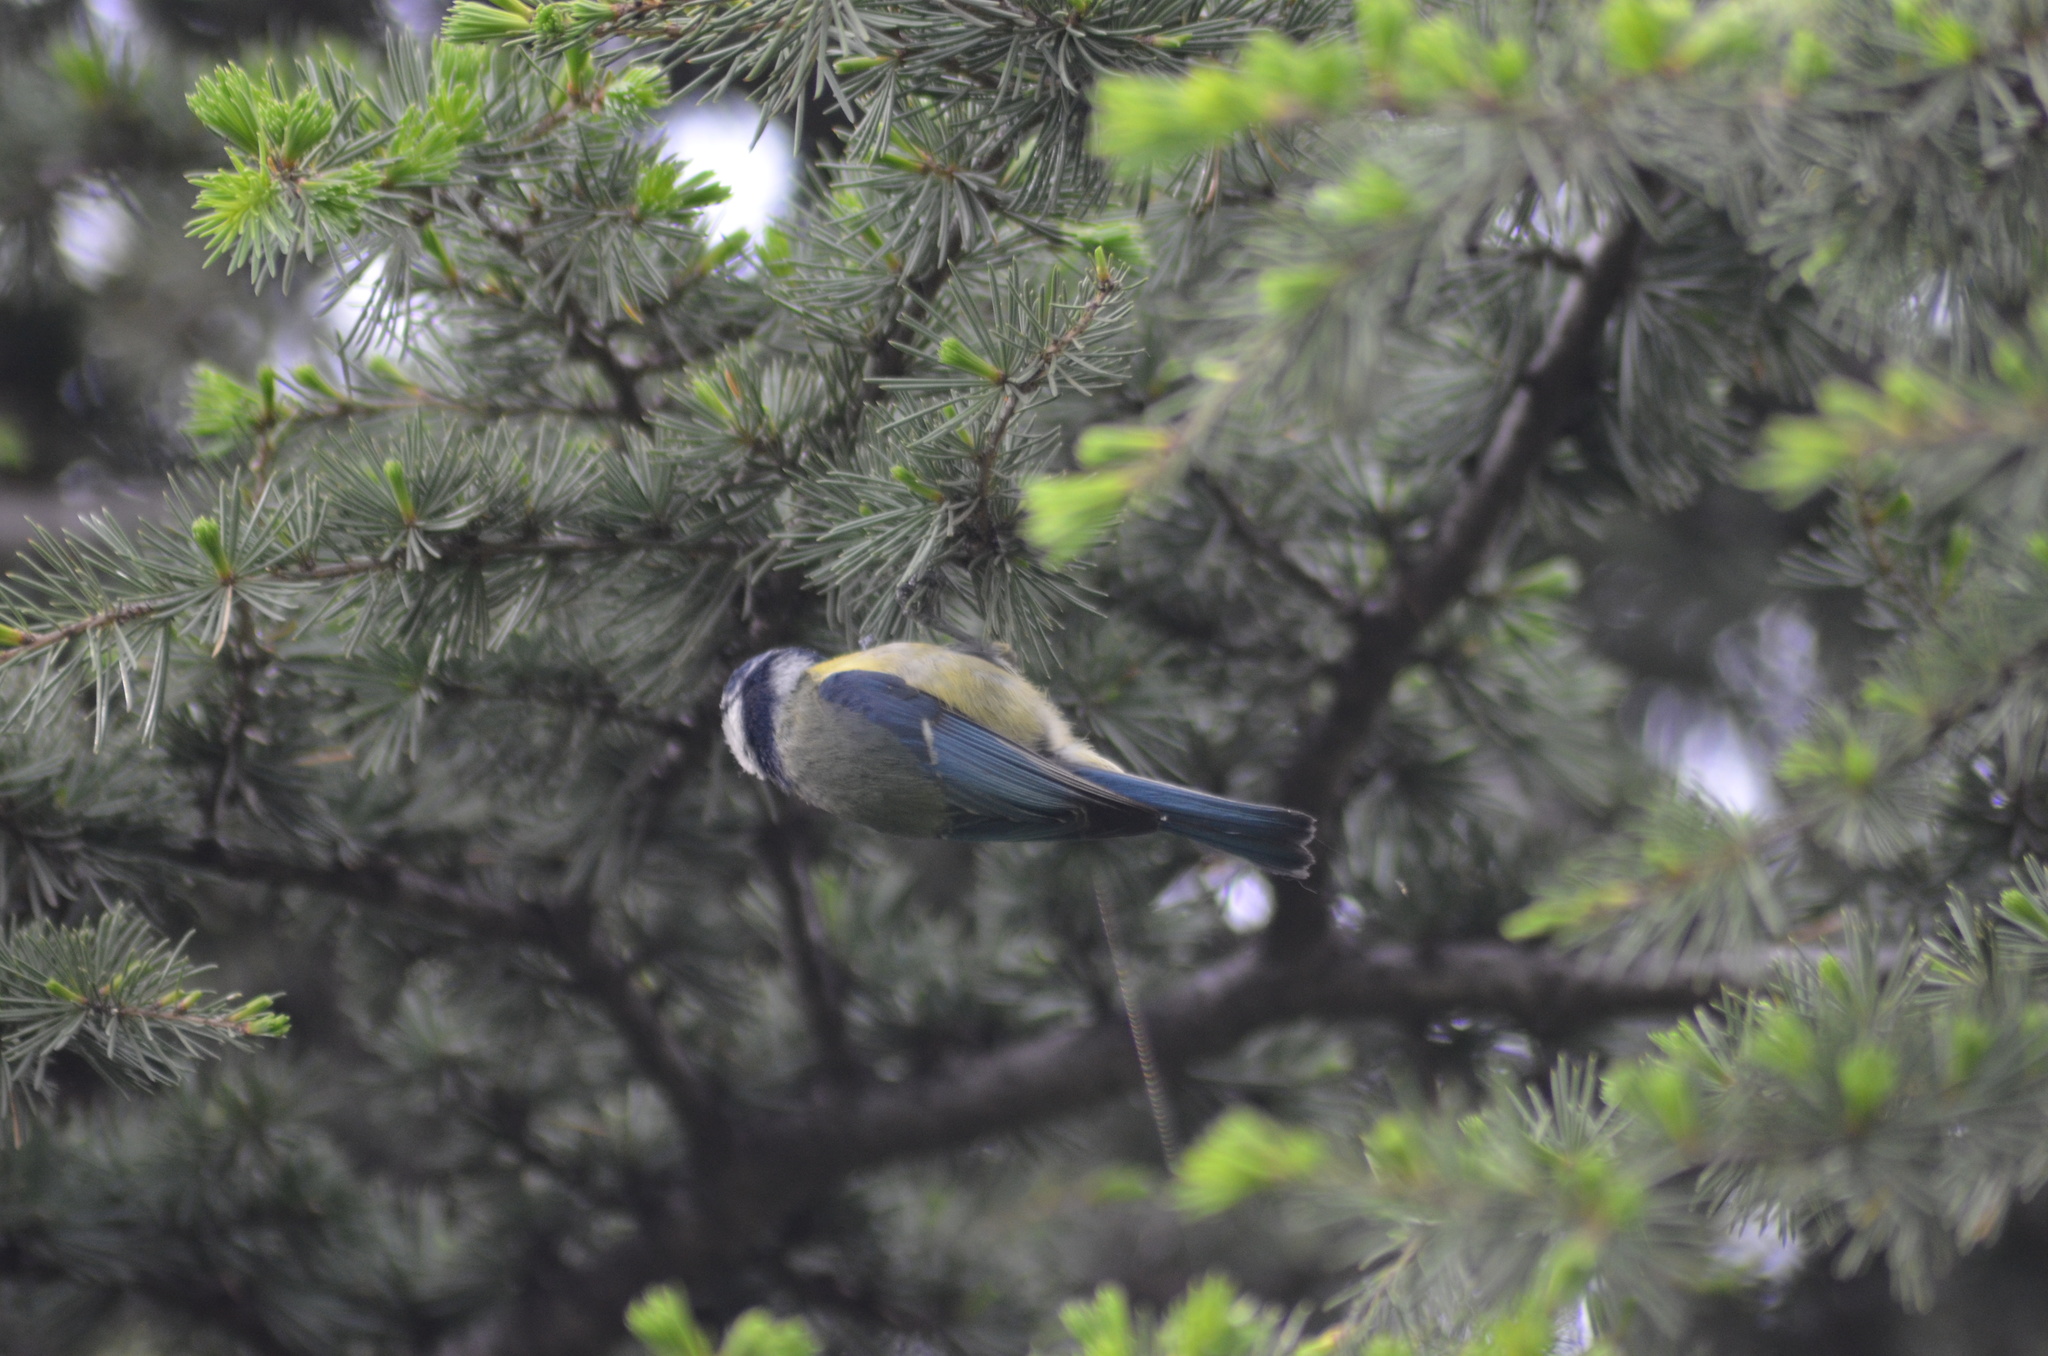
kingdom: Animalia
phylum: Chordata
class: Aves
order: Passeriformes
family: Paridae
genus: Cyanistes
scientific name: Cyanistes caeruleus
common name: Eurasian blue tit
